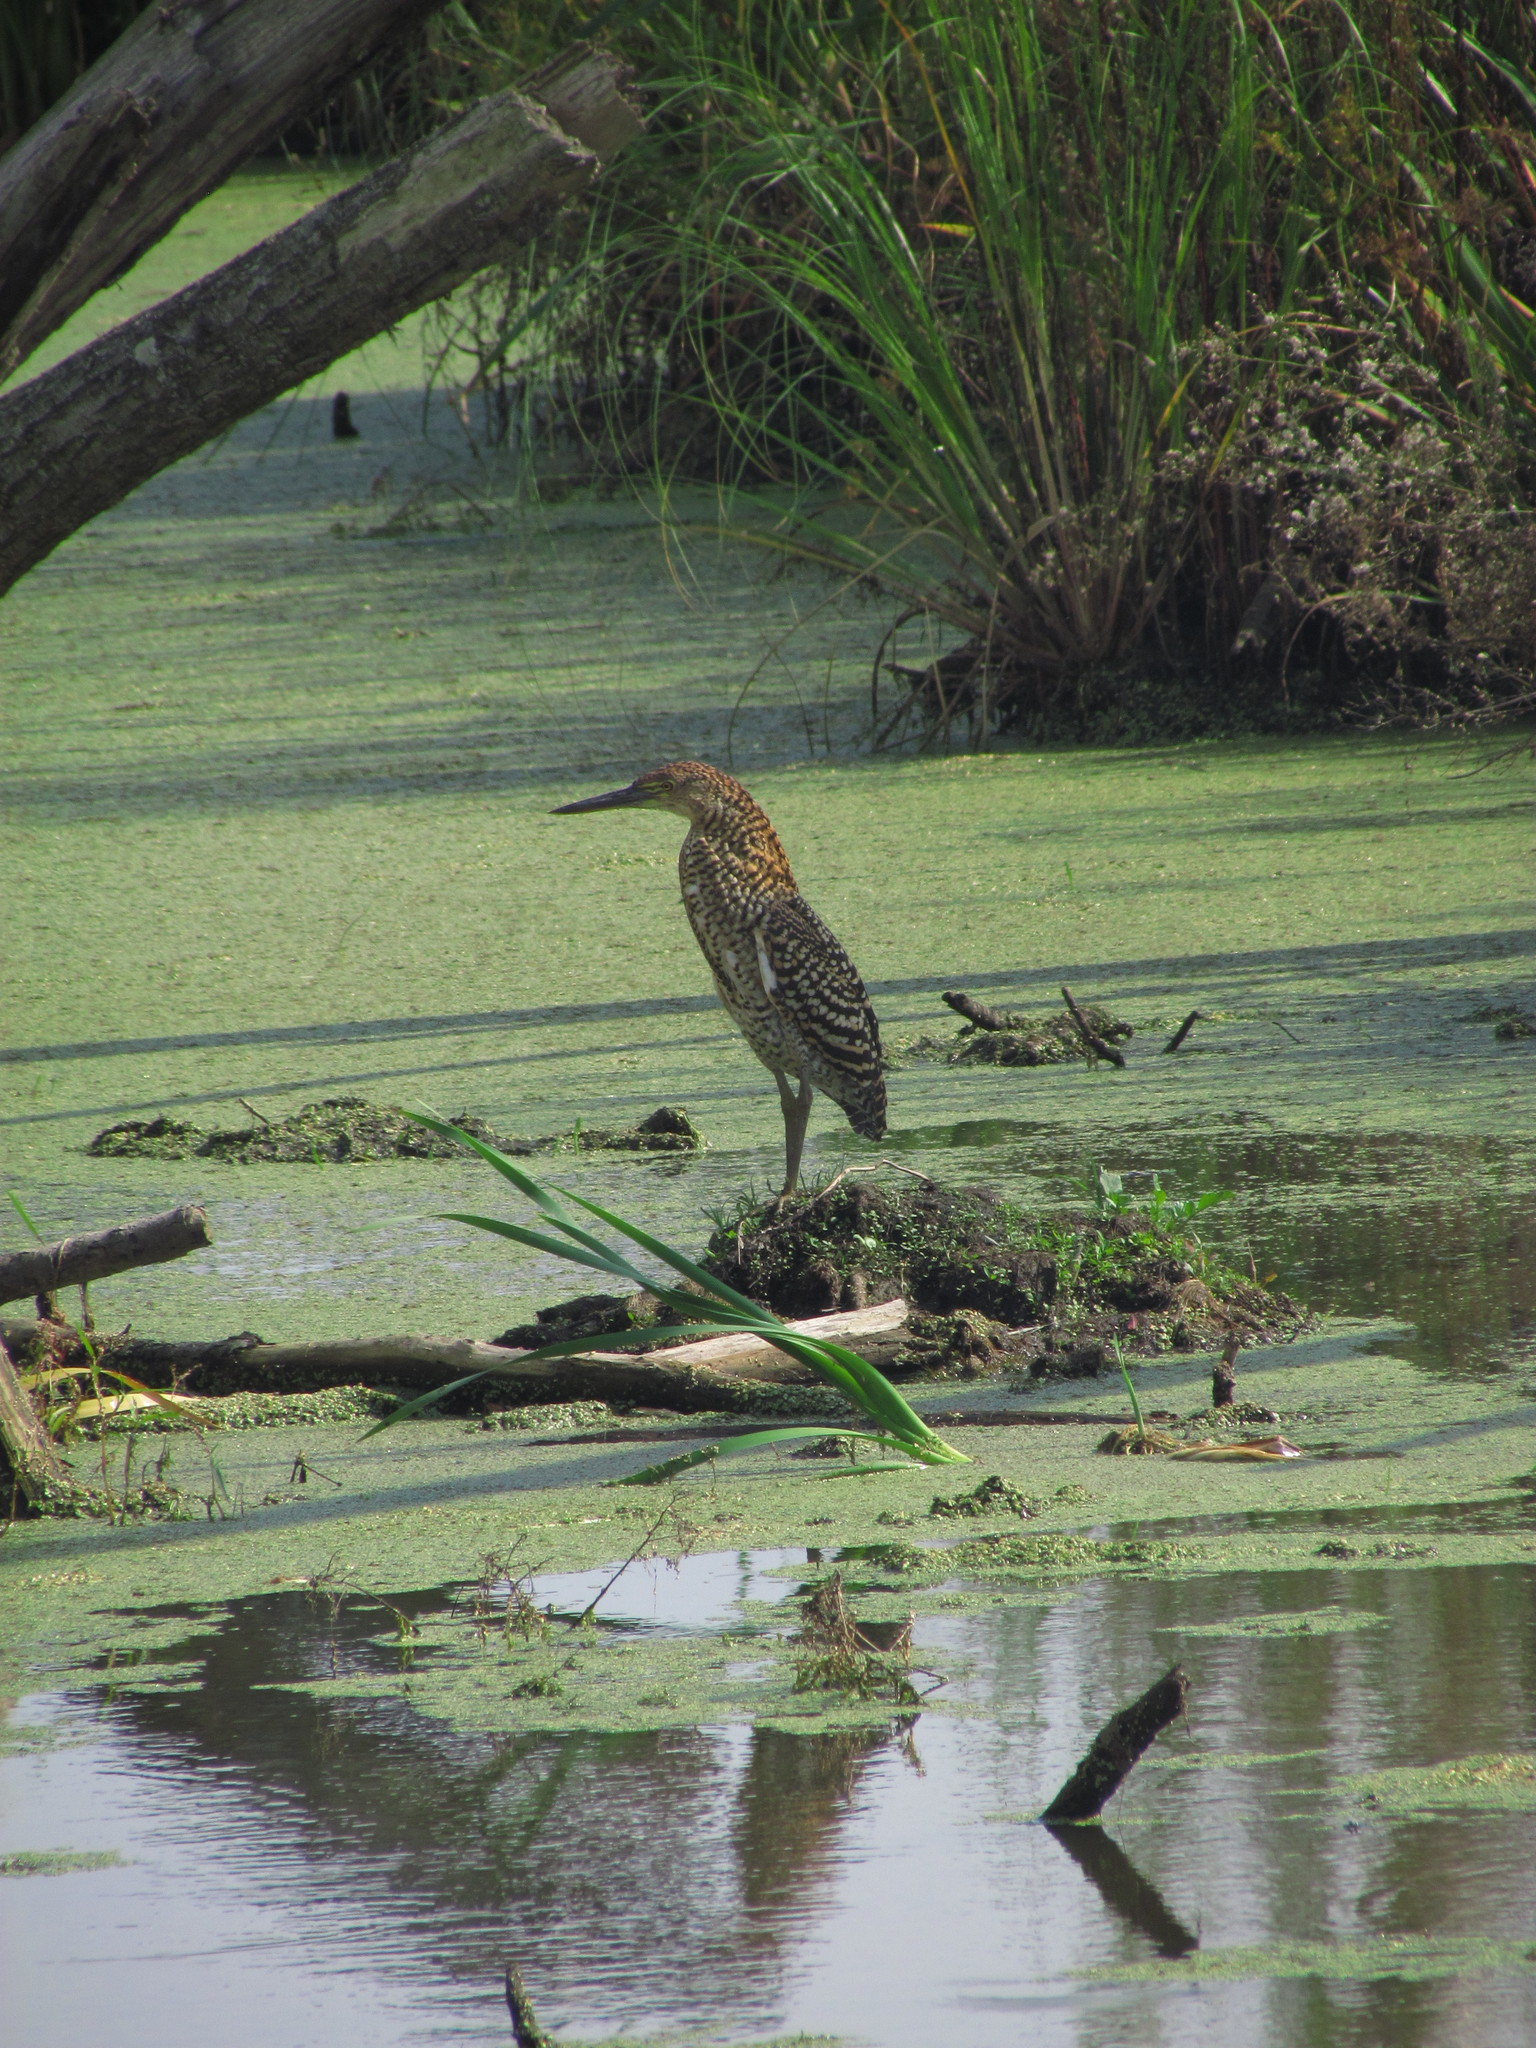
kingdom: Animalia
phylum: Chordata
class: Aves
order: Pelecaniformes
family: Ardeidae
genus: Tigrisoma
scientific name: Tigrisoma lineatum
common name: Rufescent tiger-heron
